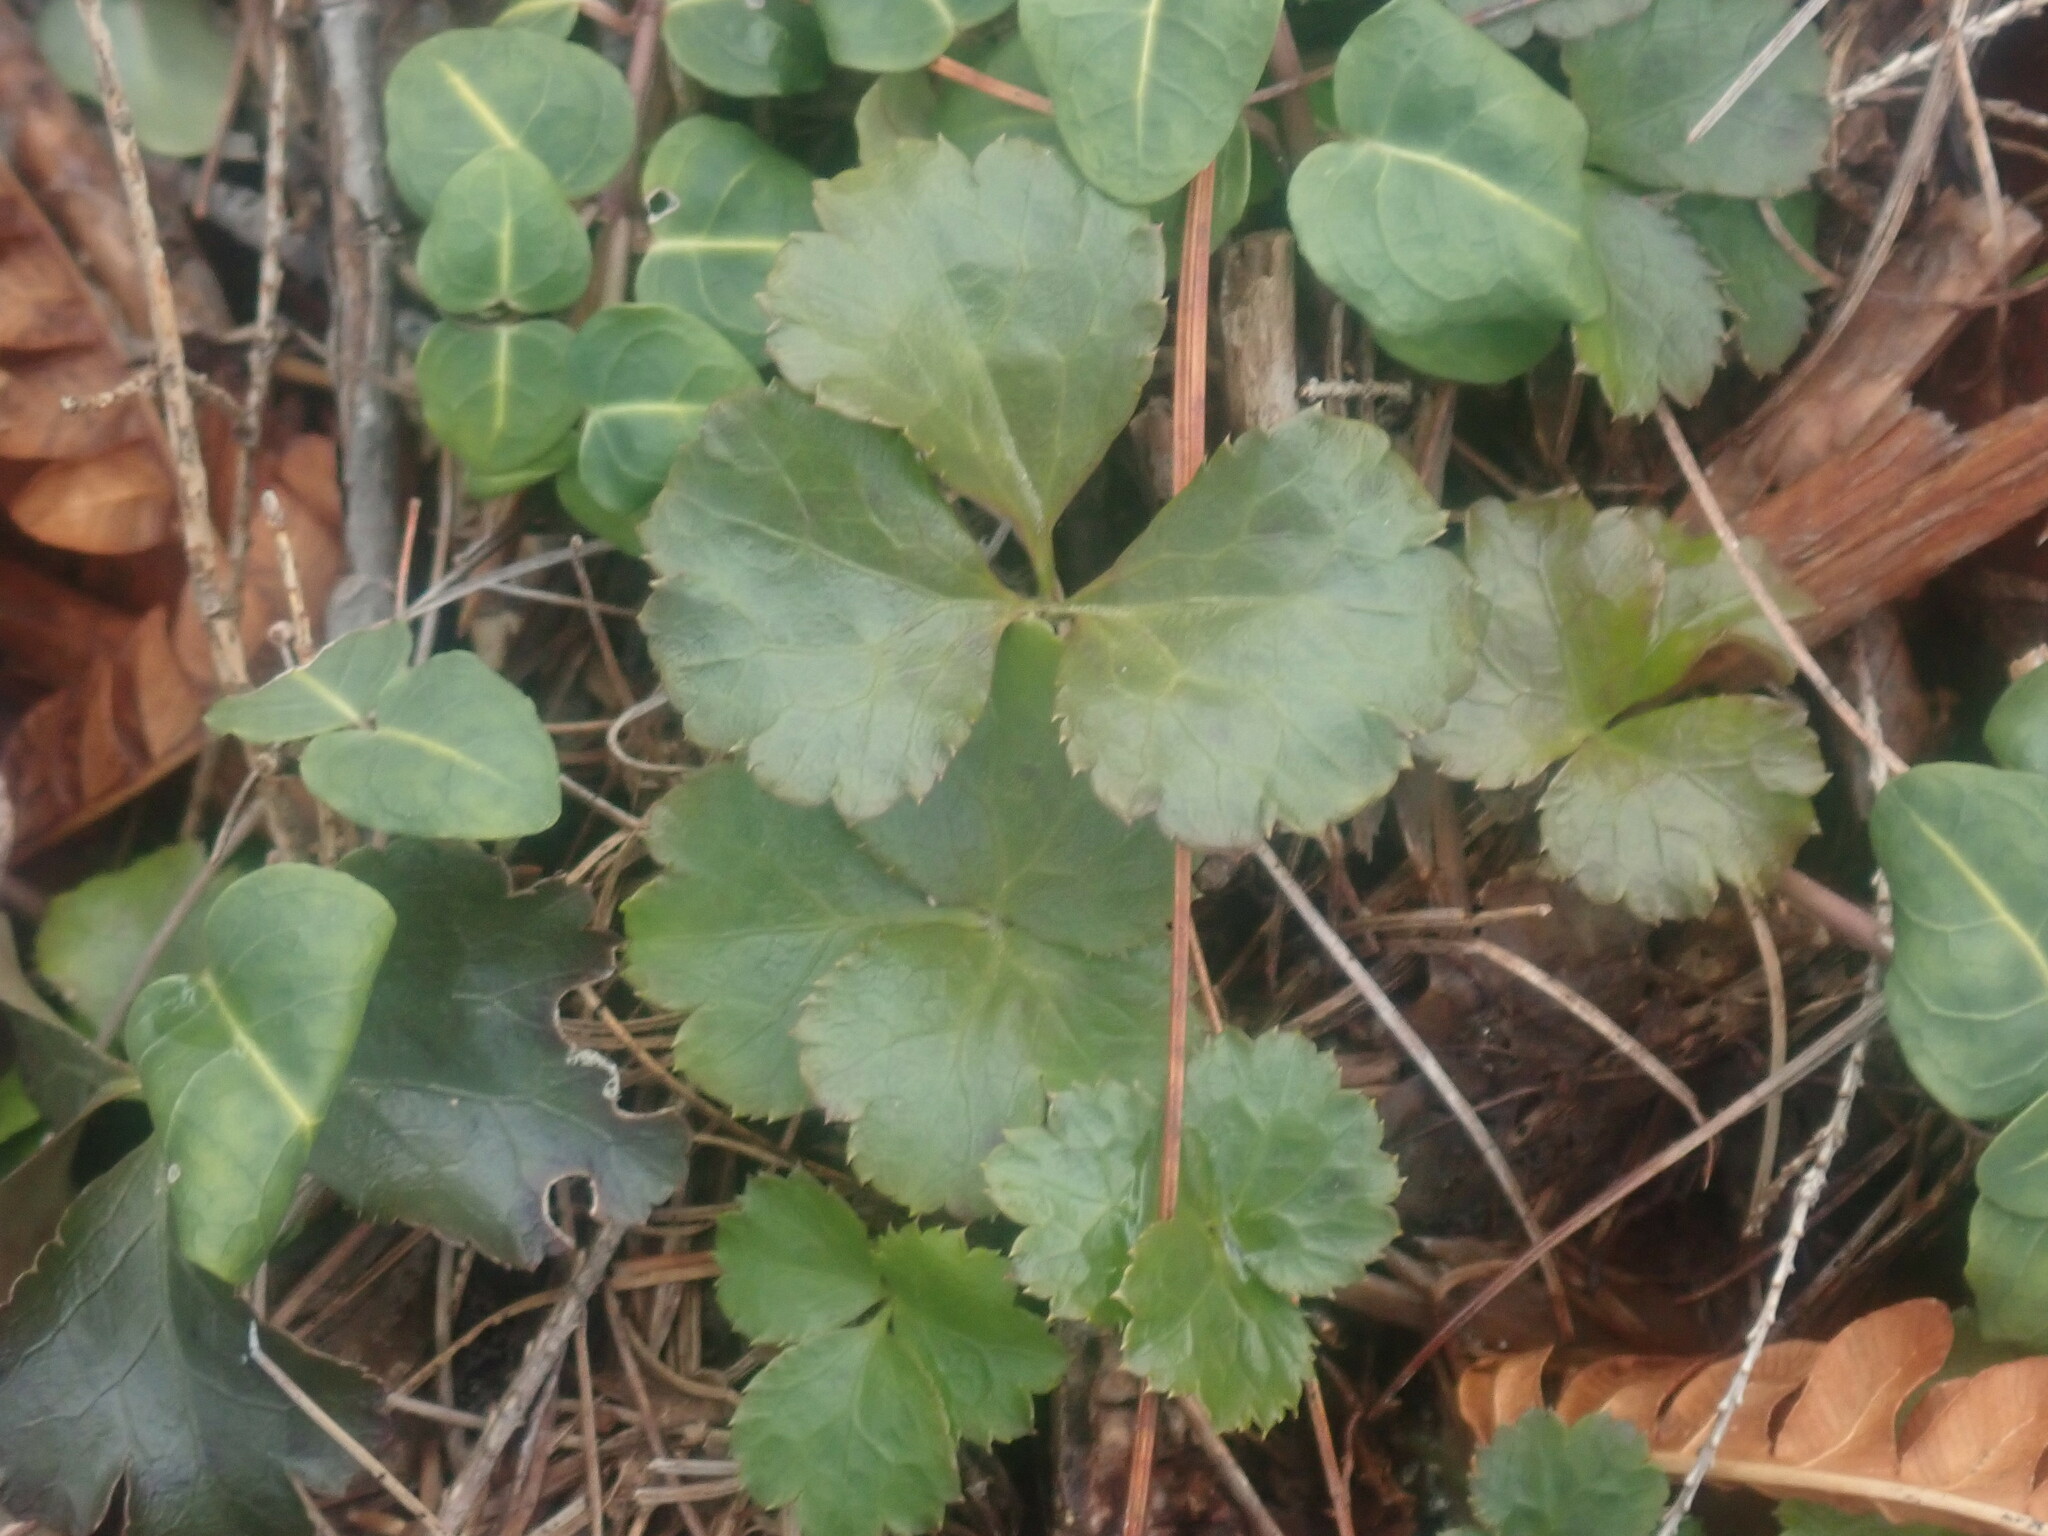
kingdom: Plantae
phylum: Tracheophyta
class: Magnoliopsida
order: Ranunculales
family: Ranunculaceae
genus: Coptis
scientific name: Coptis trifolia
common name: Canker-root
